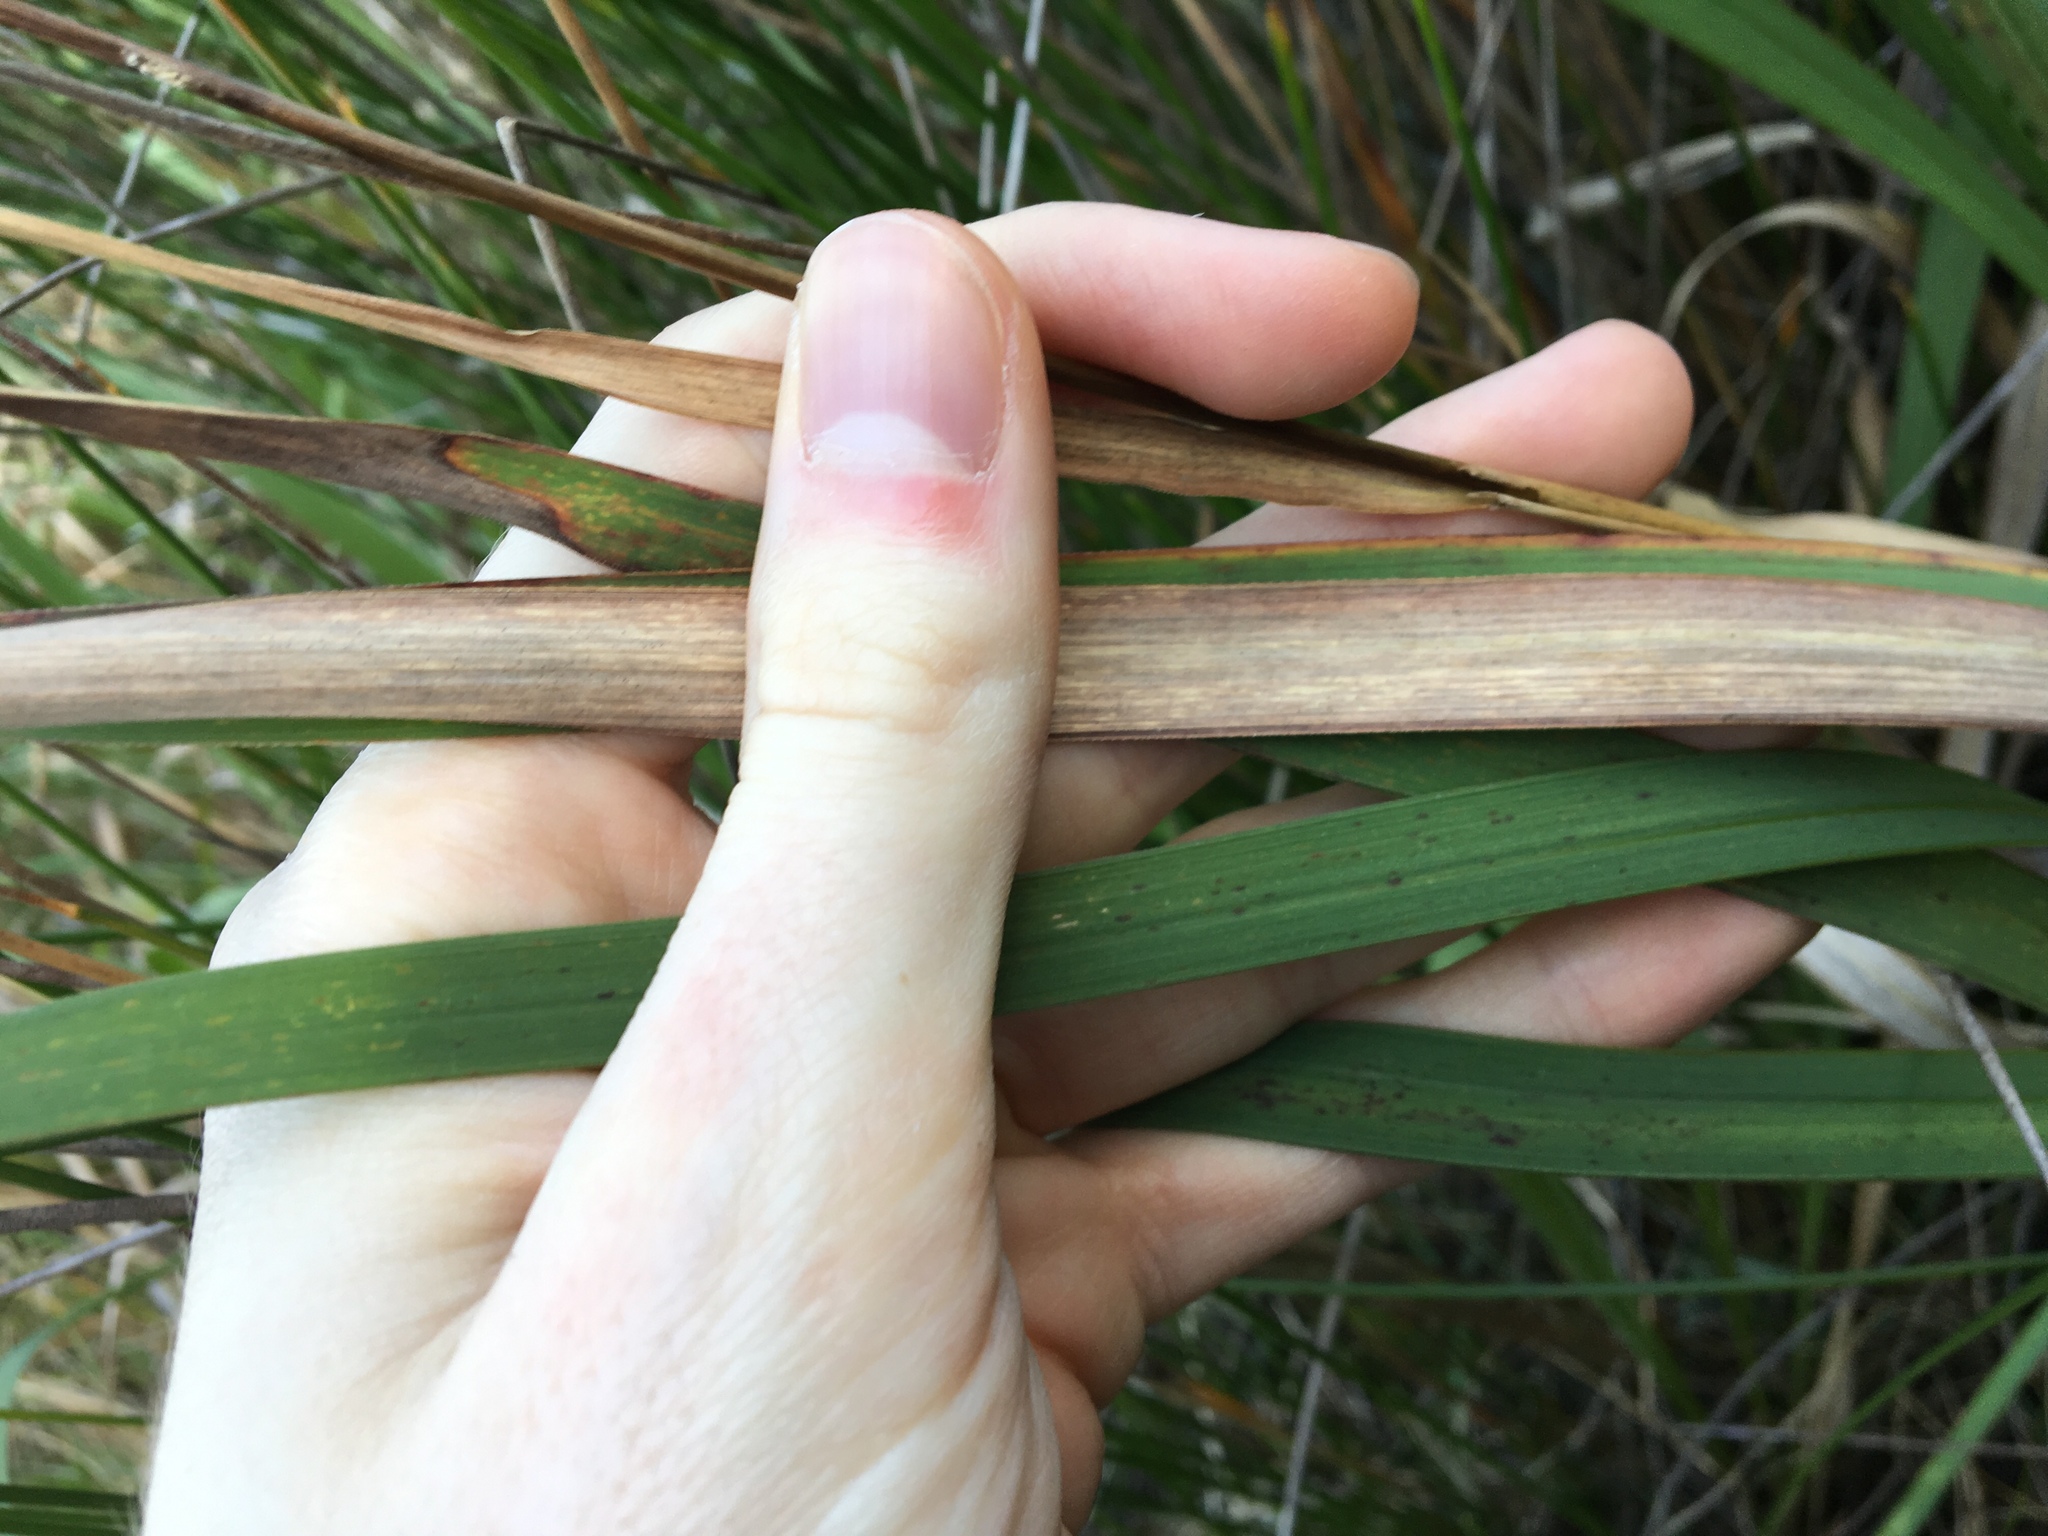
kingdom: Plantae
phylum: Tracheophyta
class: Liliopsida
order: Poales
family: Poaceae
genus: Imperata
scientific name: Imperata cylindrica
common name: Cogongrass
